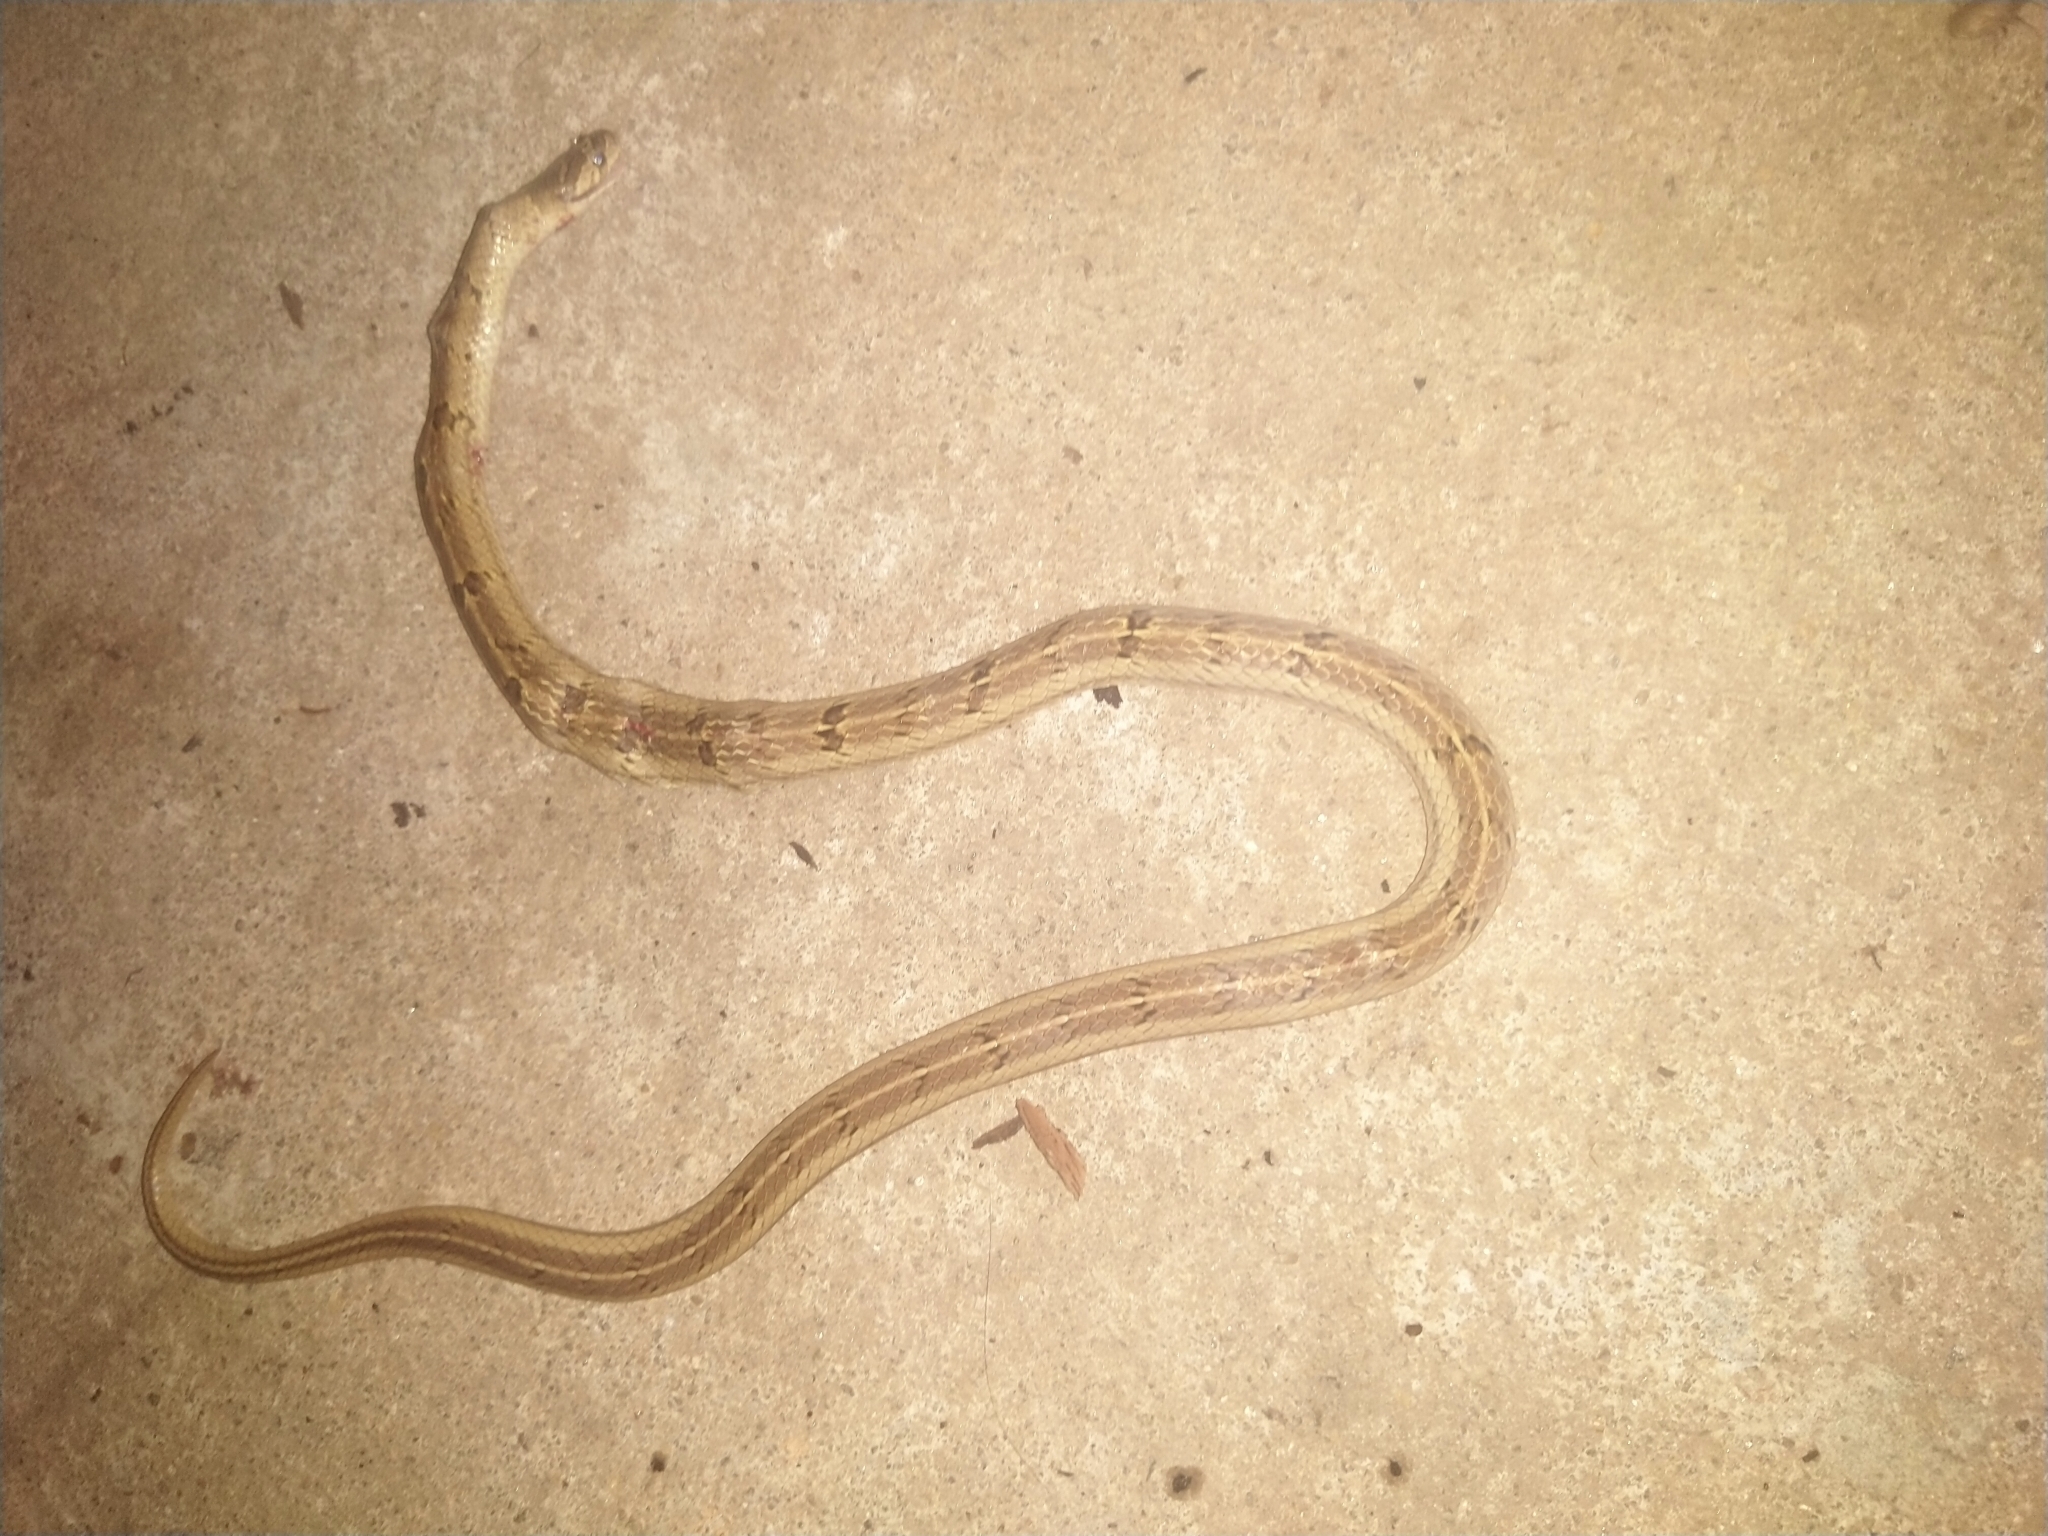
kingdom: Animalia
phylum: Chordata
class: Squamata
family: Colubridae
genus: Oligodon
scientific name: Oligodon taeniolatus
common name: Loos snake
